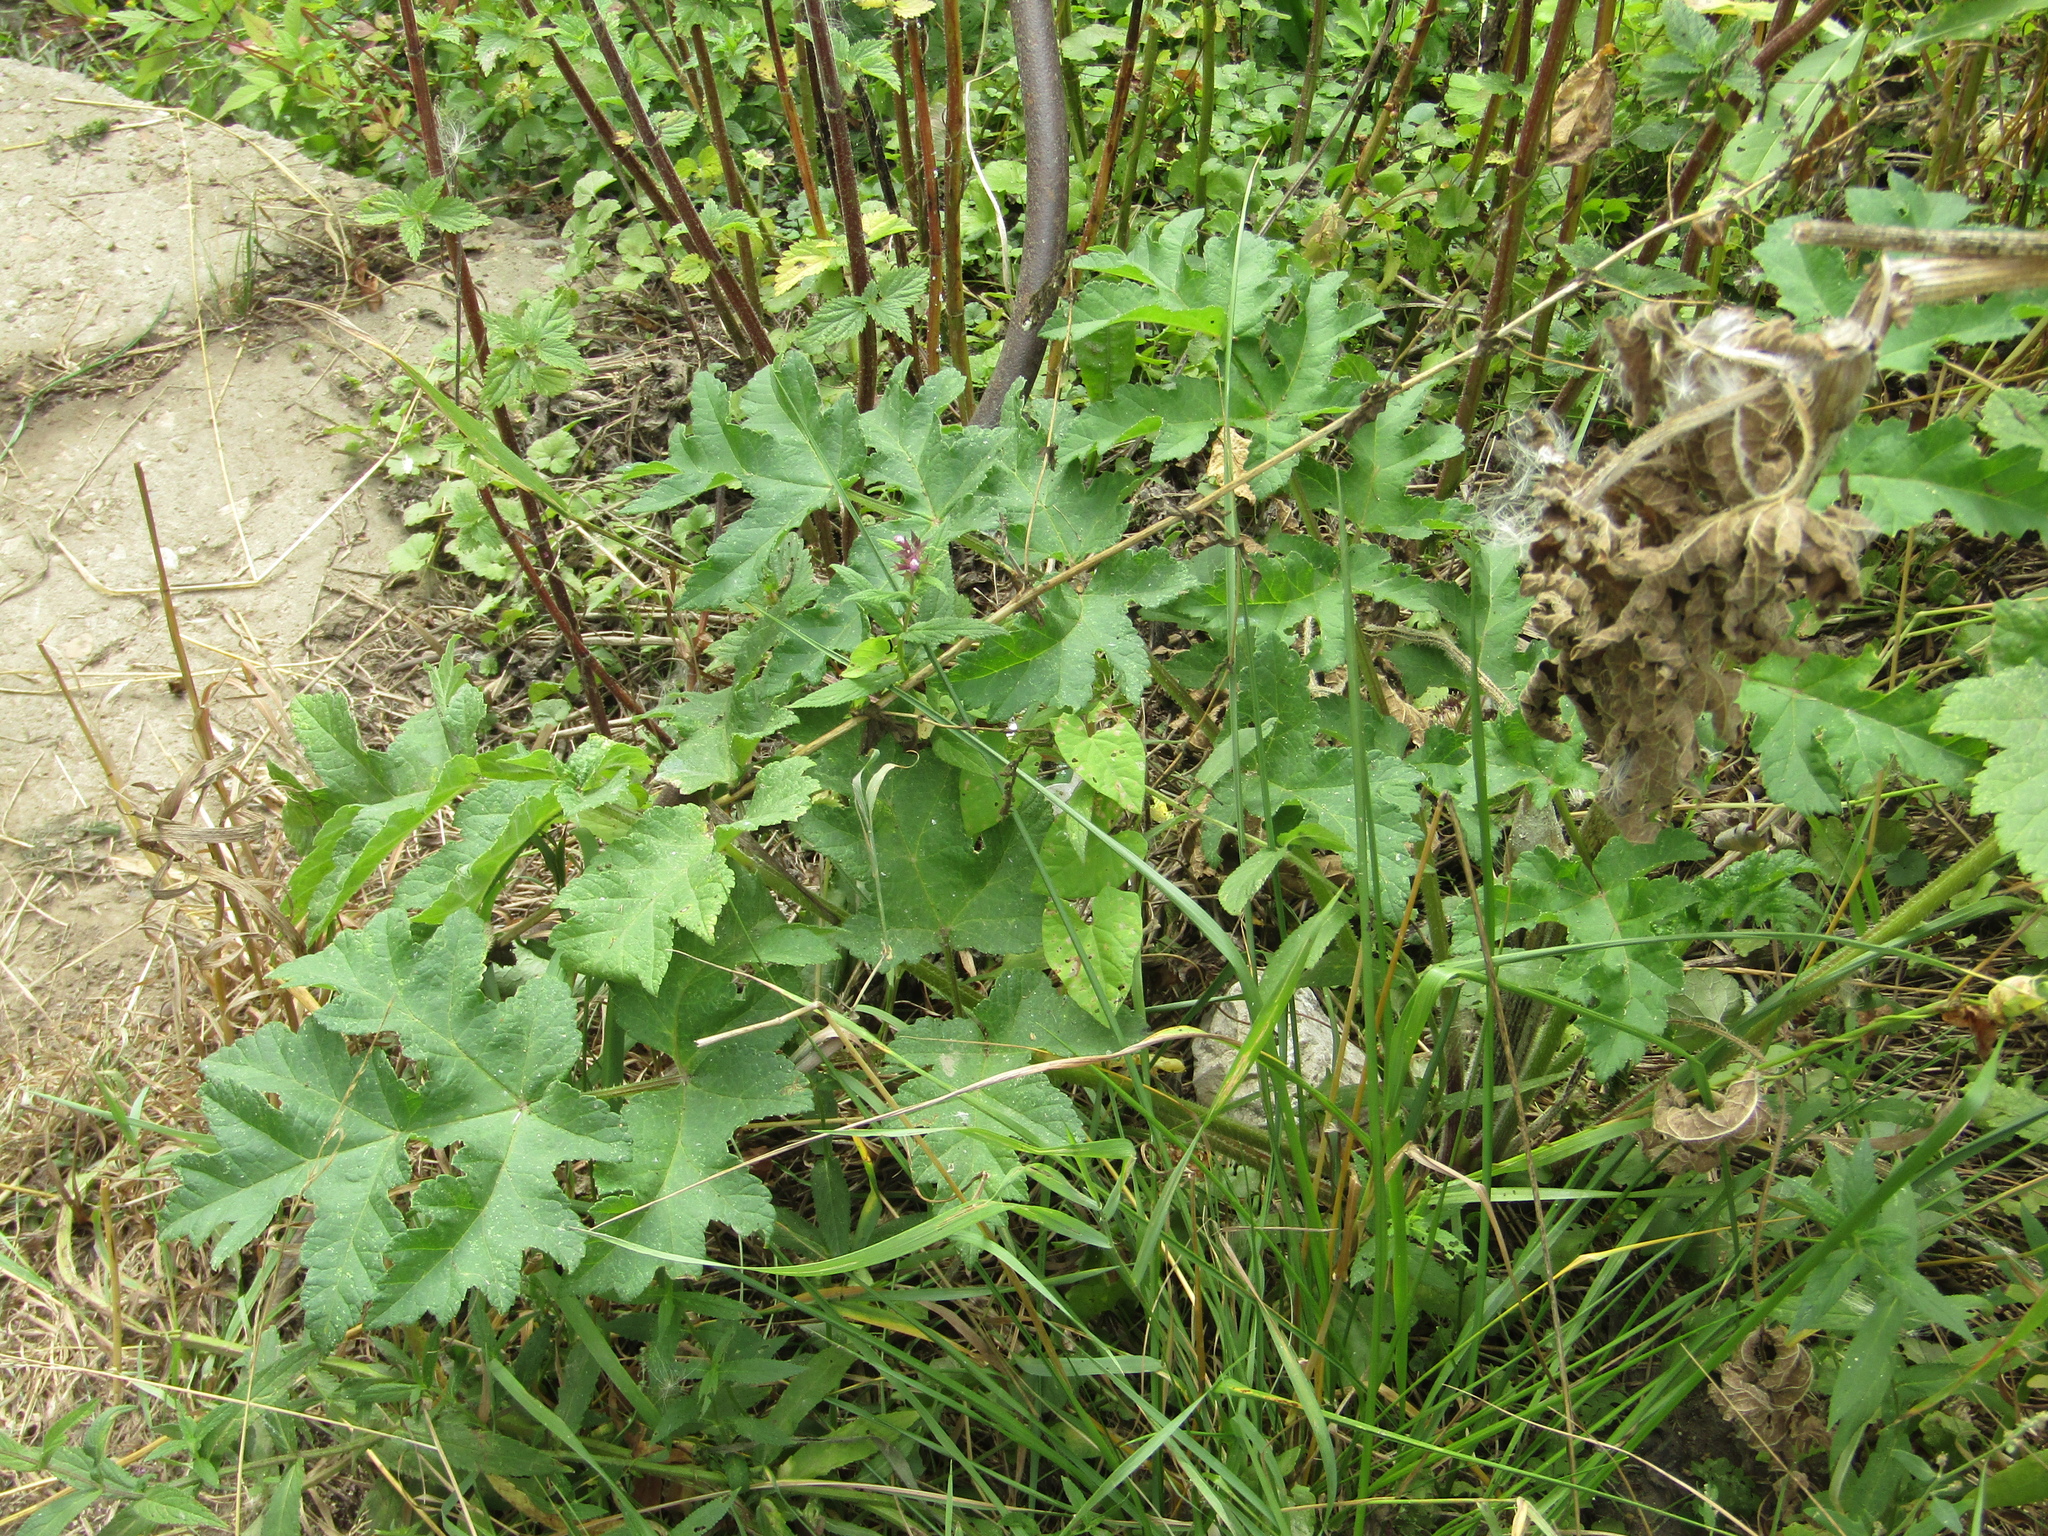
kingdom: Plantae
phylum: Tracheophyta
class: Magnoliopsida
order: Apiales
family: Apiaceae
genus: Heracleum
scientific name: Heracleum sphondylium
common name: Hogweed
